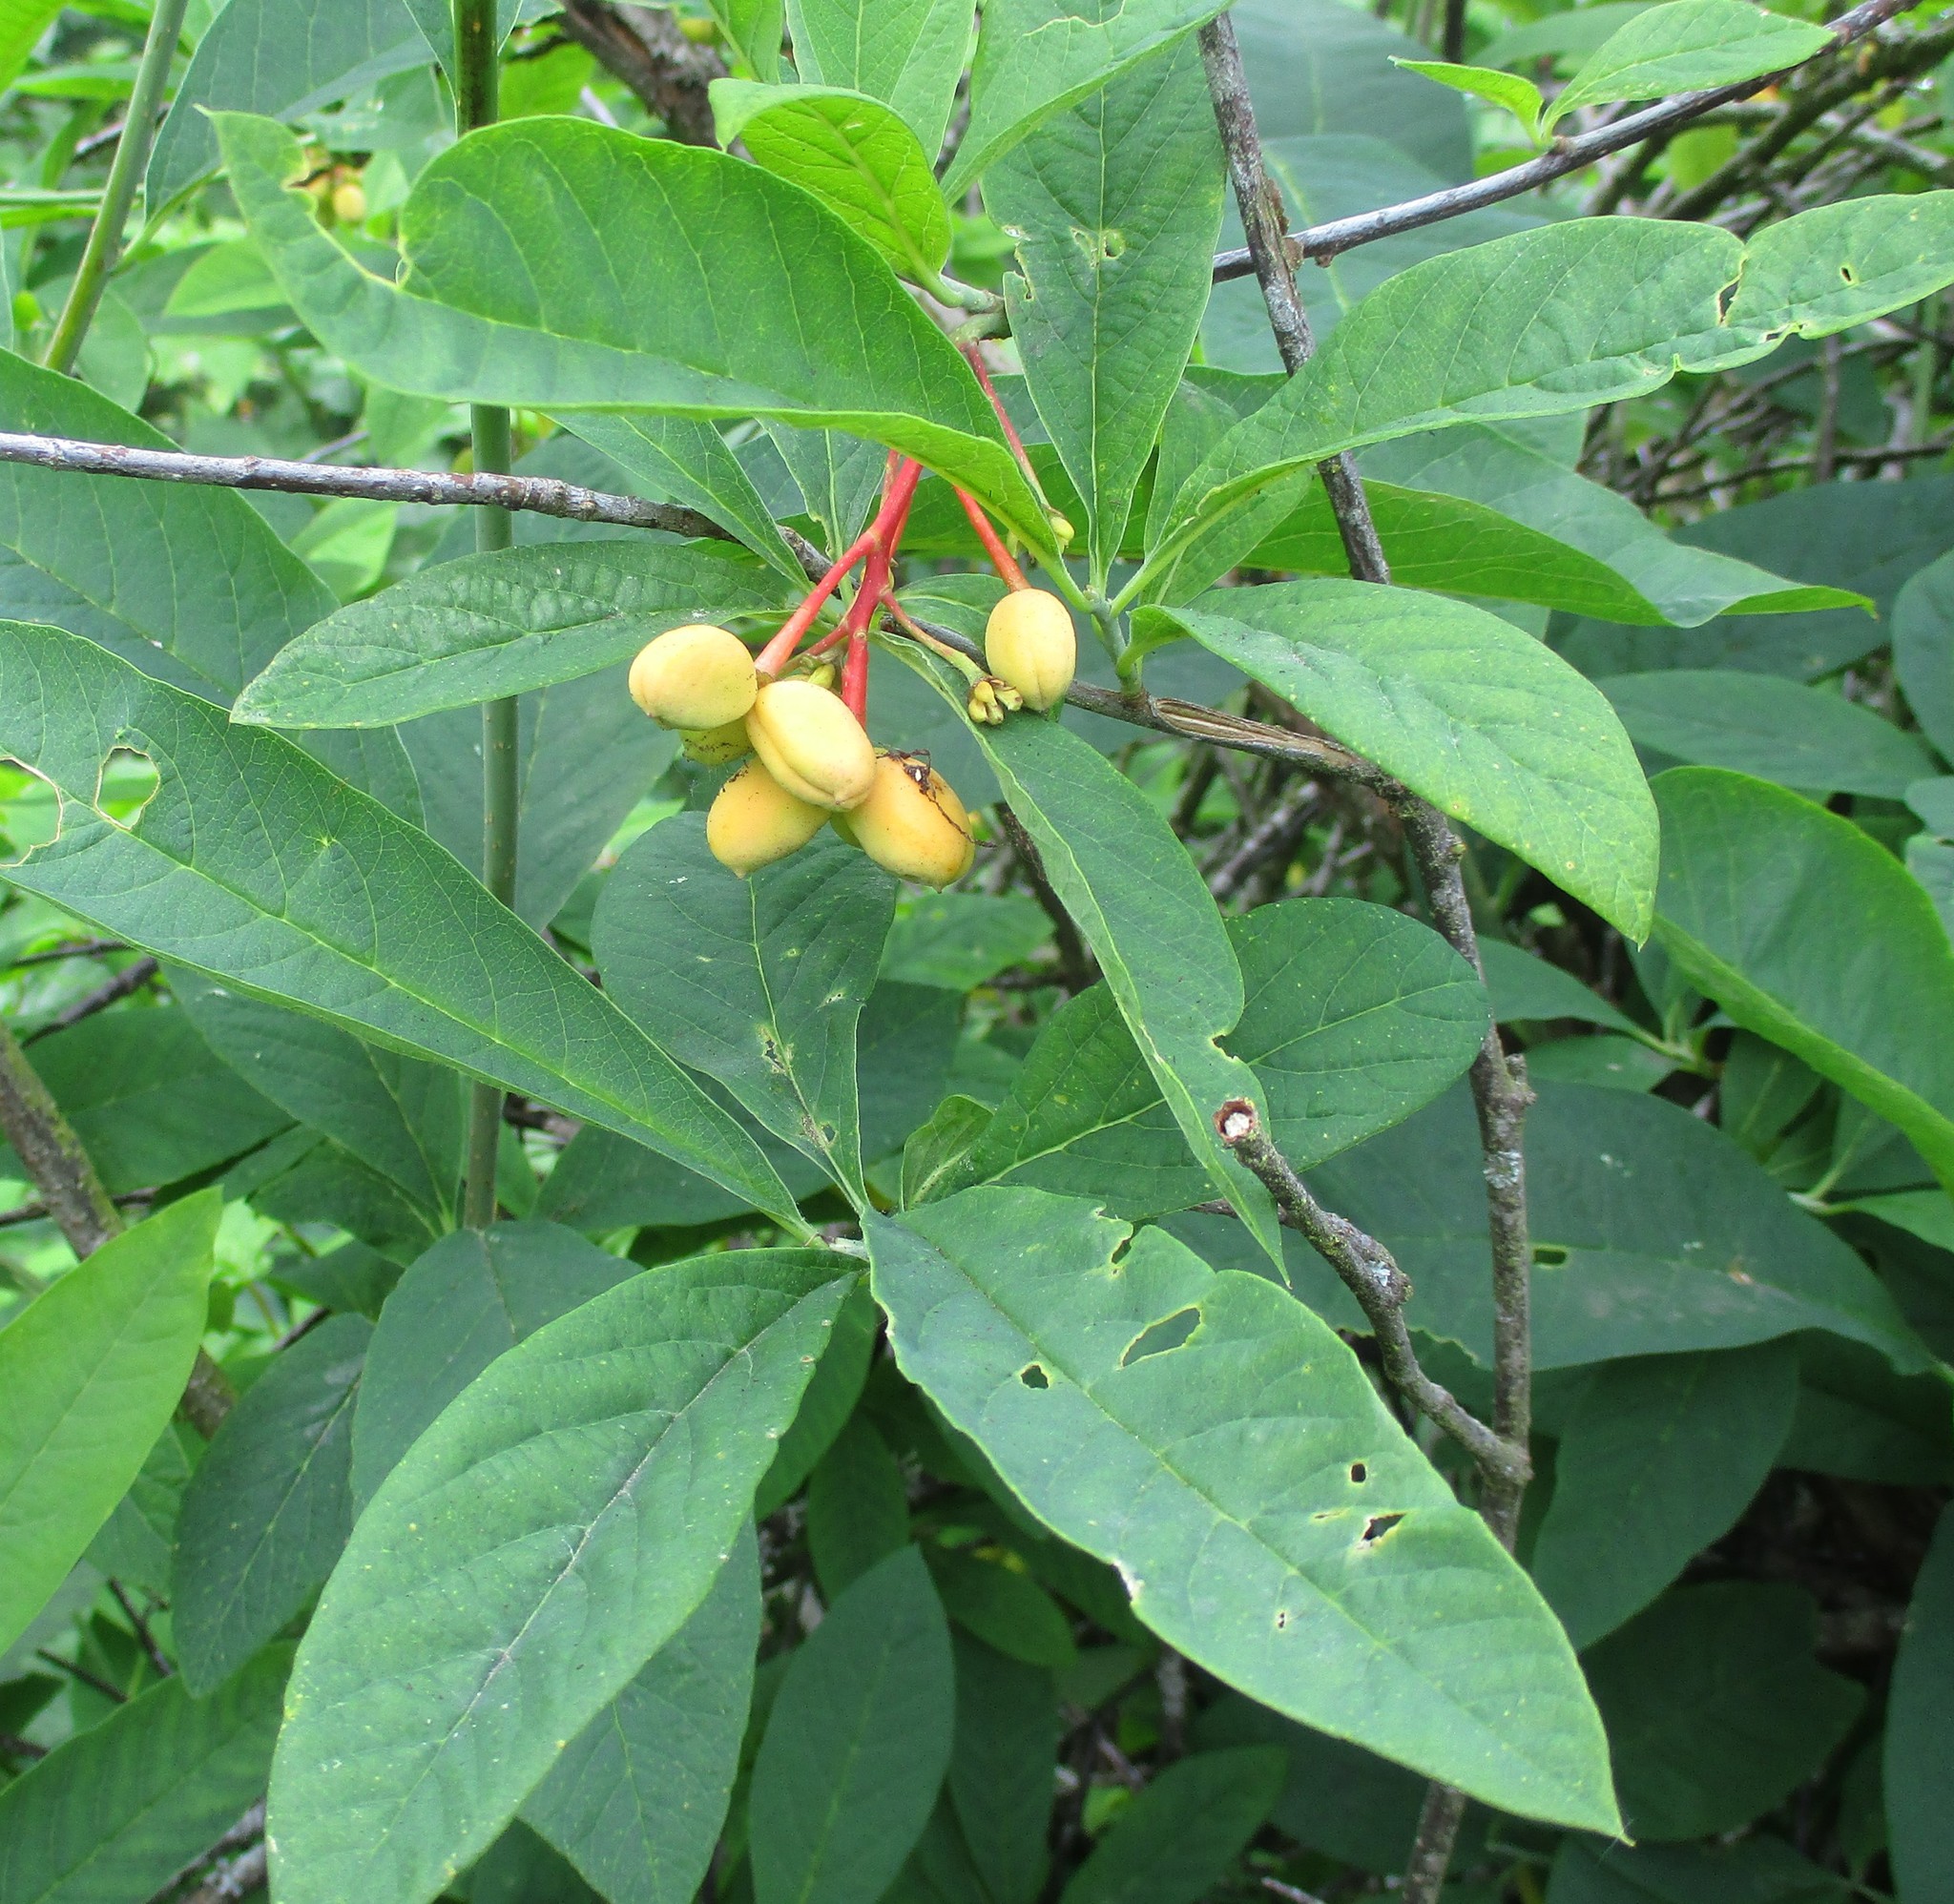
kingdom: Plantae
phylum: Tracheophyta
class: Magnoliopsida
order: Rosales
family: Rosaceae
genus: Oemleria
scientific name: Oemleria cerasiformis
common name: Osoberry
